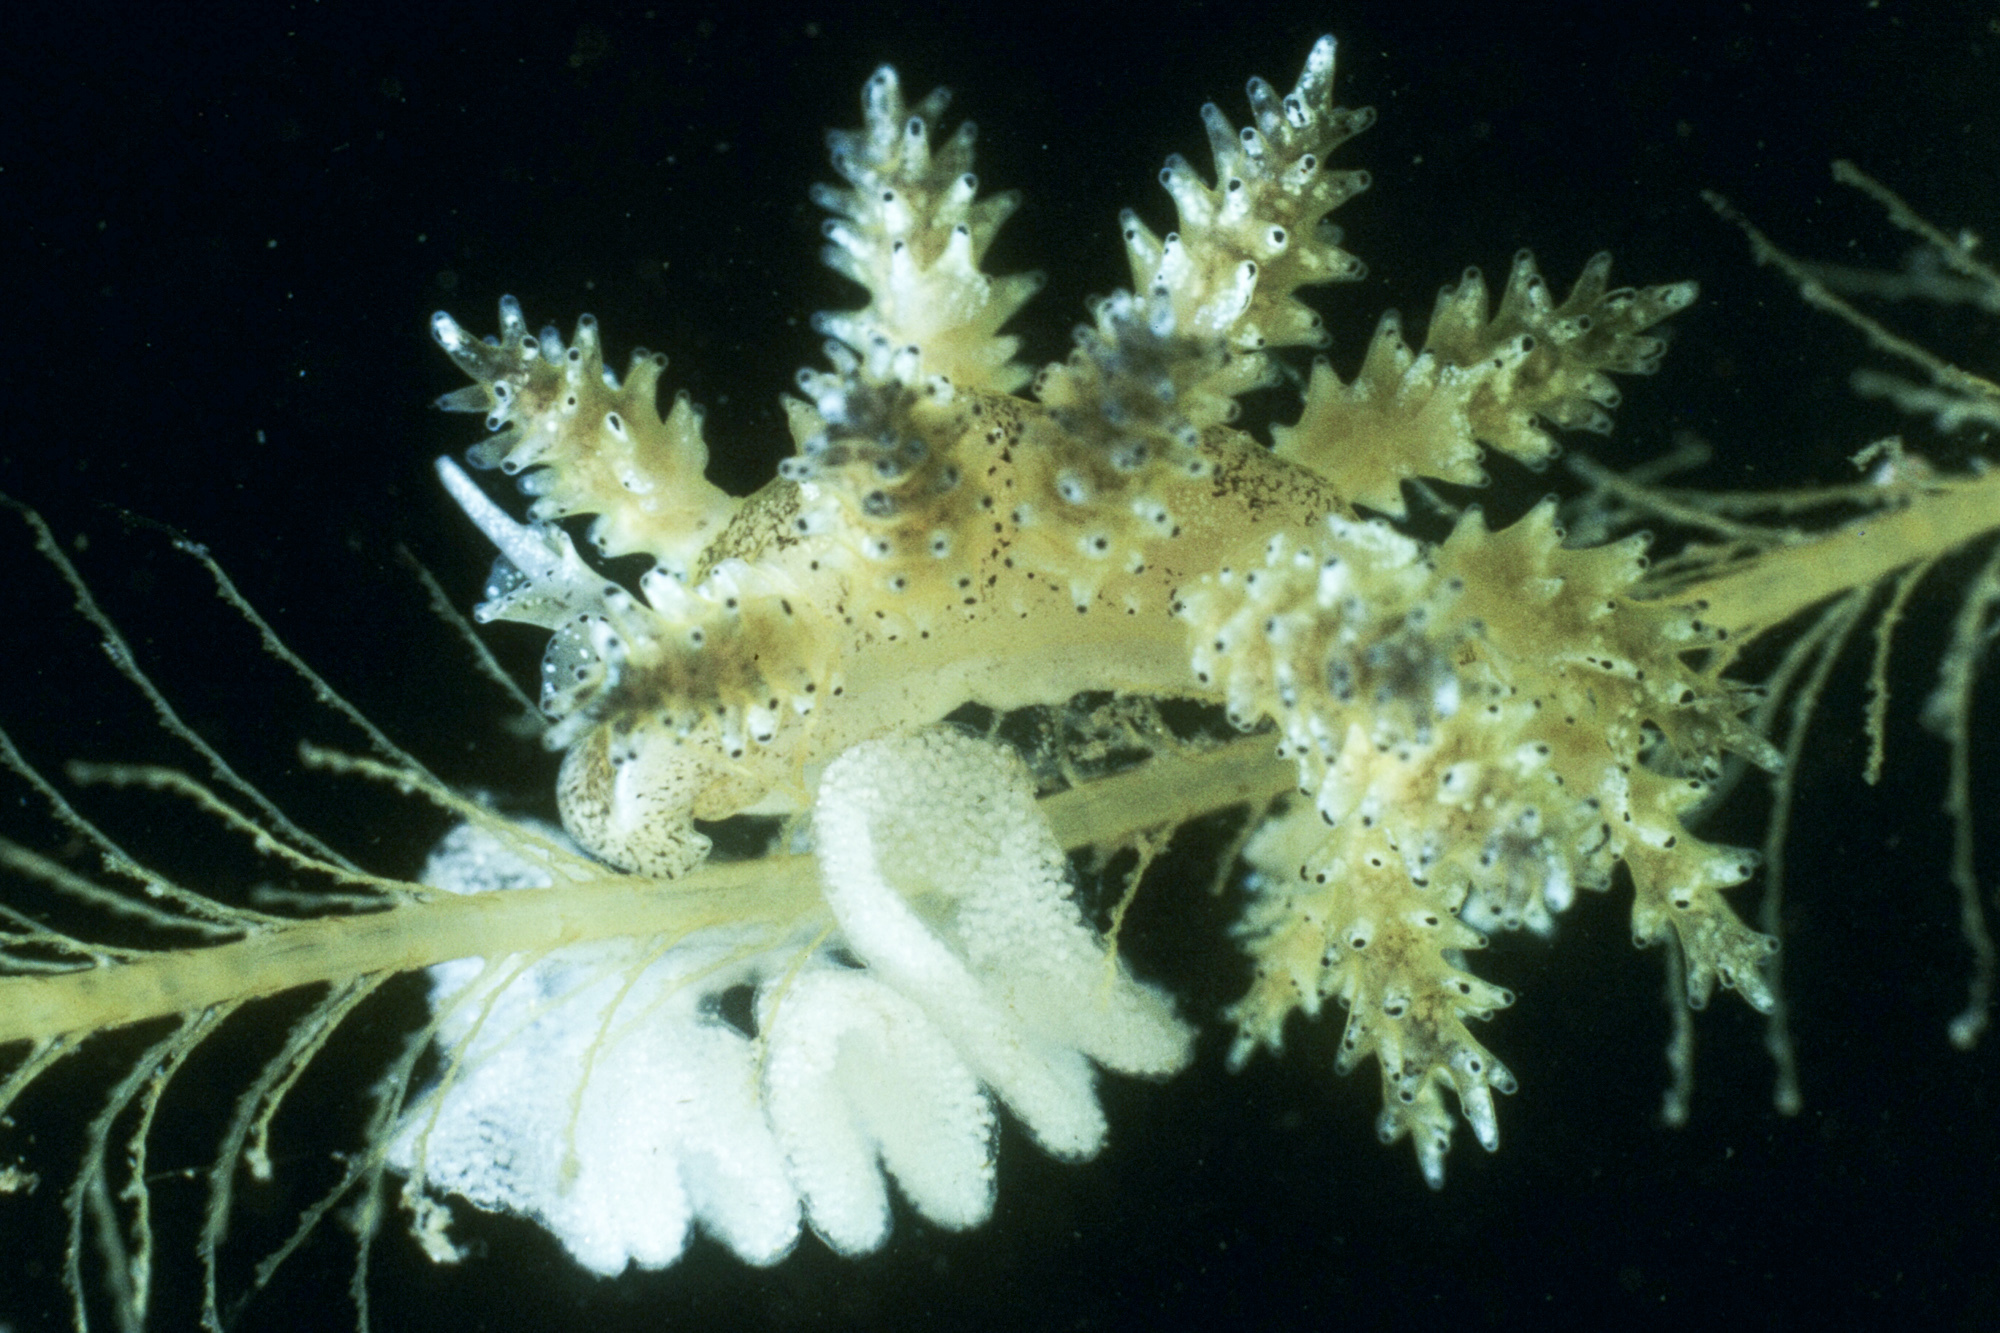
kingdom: Animalia
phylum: Mollusca
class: Gastropoda
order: Nudibranchia
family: Dotidae
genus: Doto
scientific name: Doto pinnatifida
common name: Feathered doto
